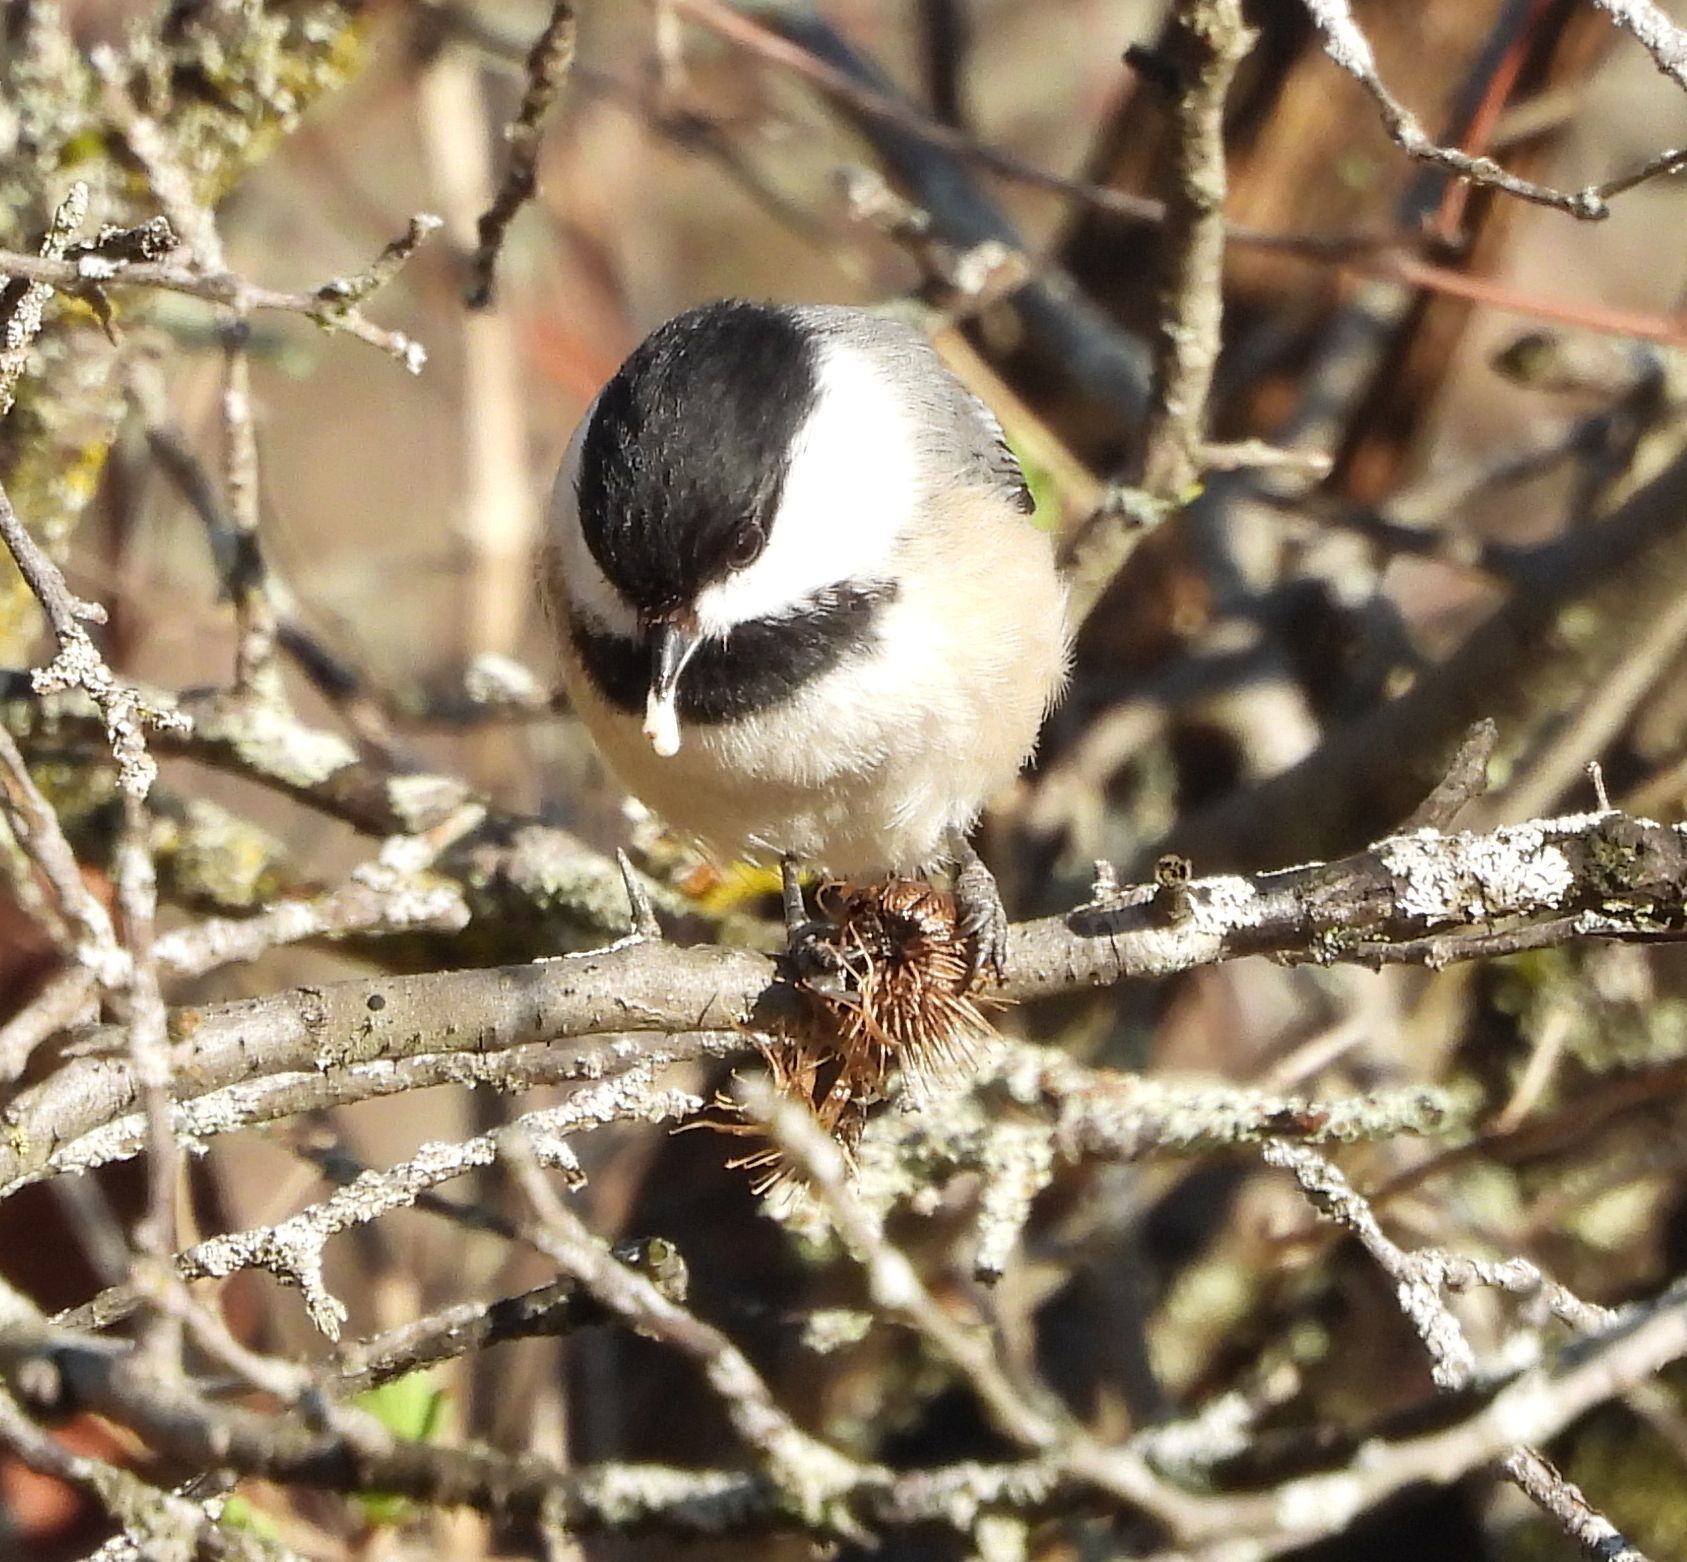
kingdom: Animalia
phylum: Chordata
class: Aves
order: Passeriformes
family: Paridae
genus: Poecile
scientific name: Poecile atricapillus
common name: Black-capped chickadee
